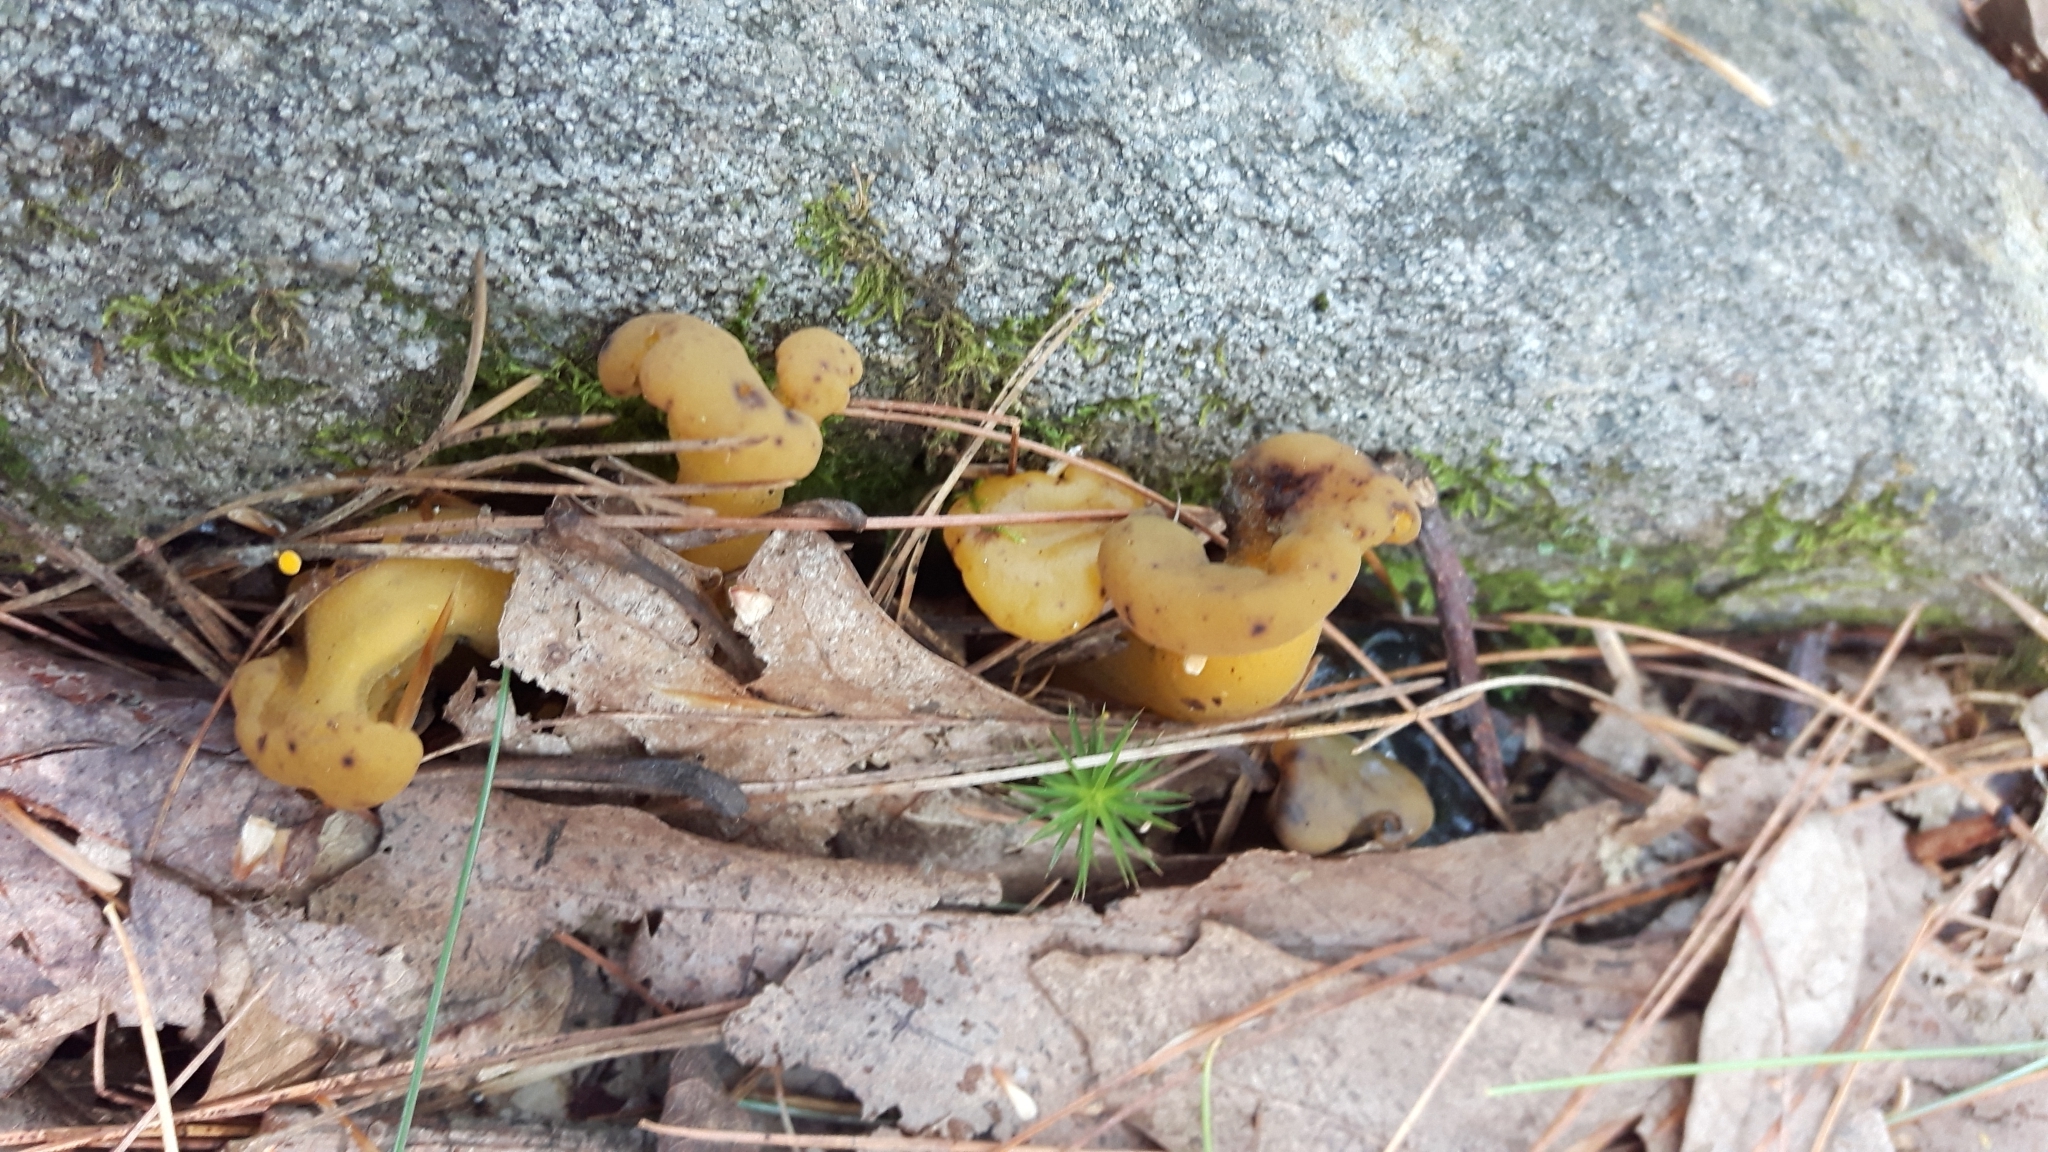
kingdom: Fungi
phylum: Ascomycota
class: Leotiomycetes
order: Leotiales
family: Leotiaceae
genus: Leotia
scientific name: Leotia lubrica
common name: Jellybaby
